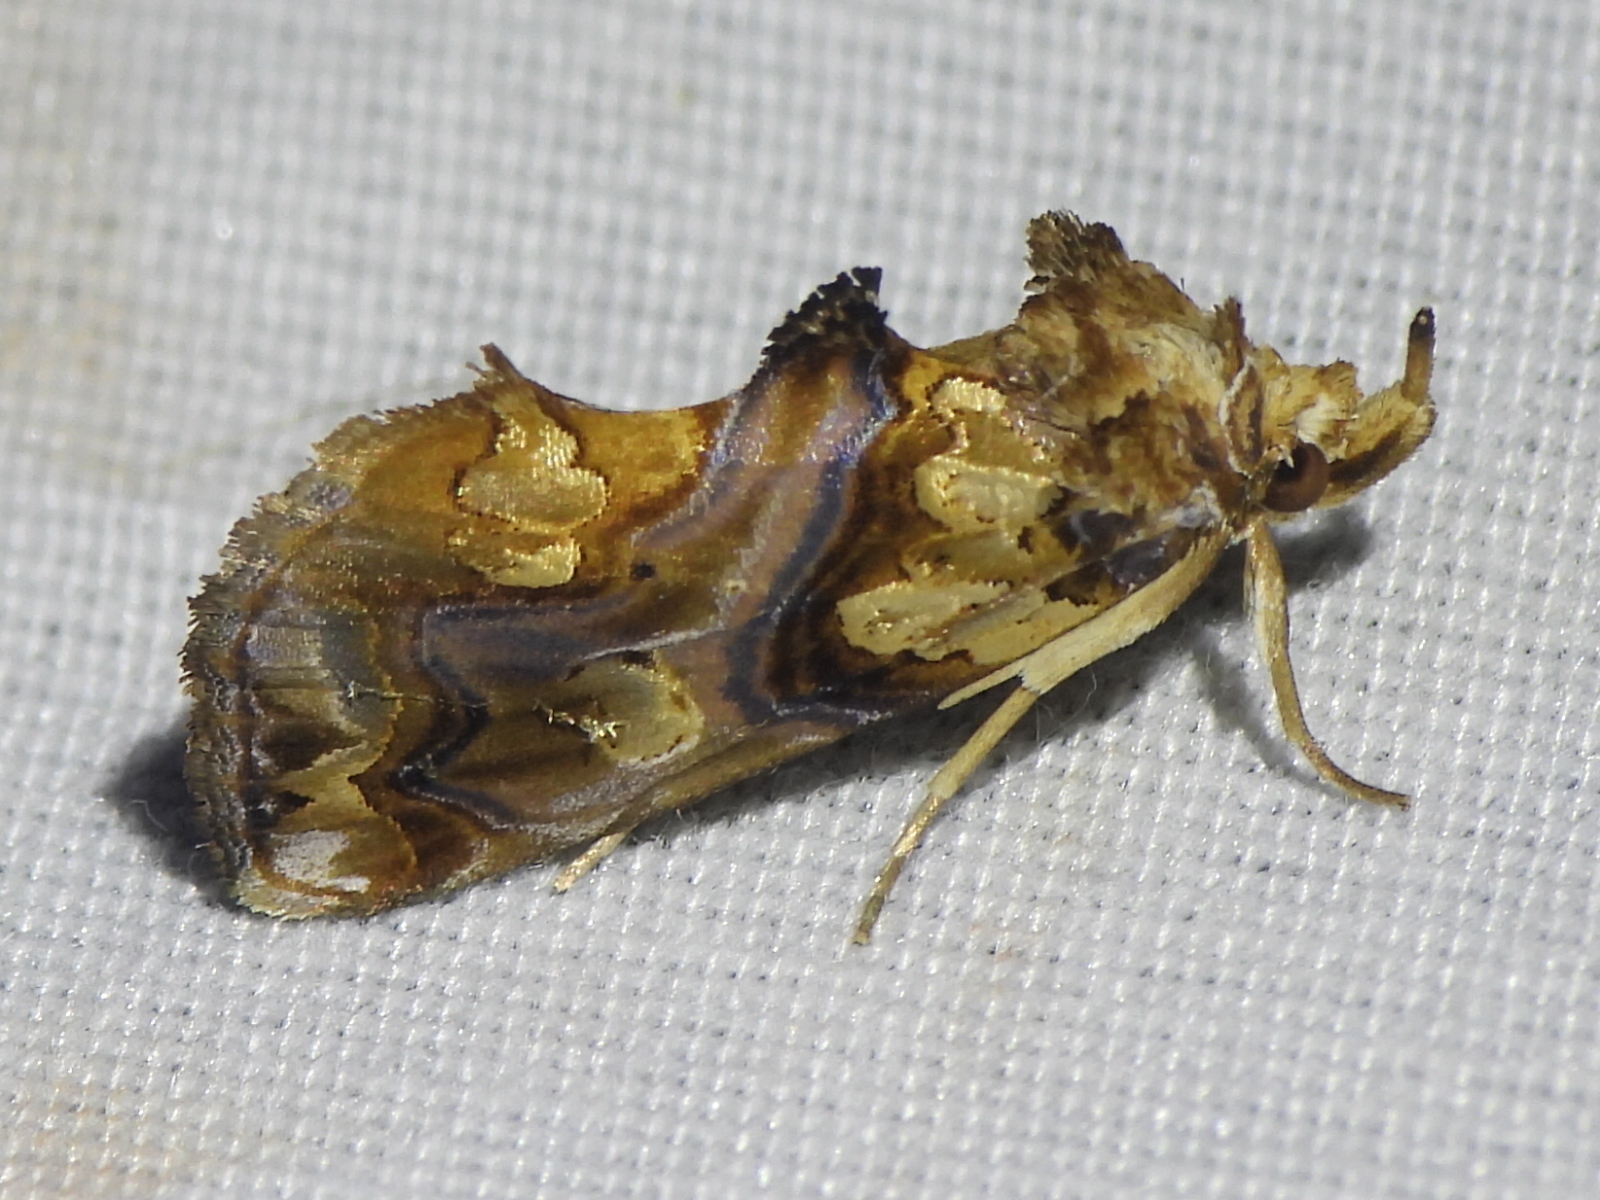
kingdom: Animalia
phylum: Arthropoda
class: Insecta
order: Lepidoptera
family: Erebidae
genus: Plusiodonta
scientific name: Plusiodonta compressipalpis
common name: Moonseed moth
